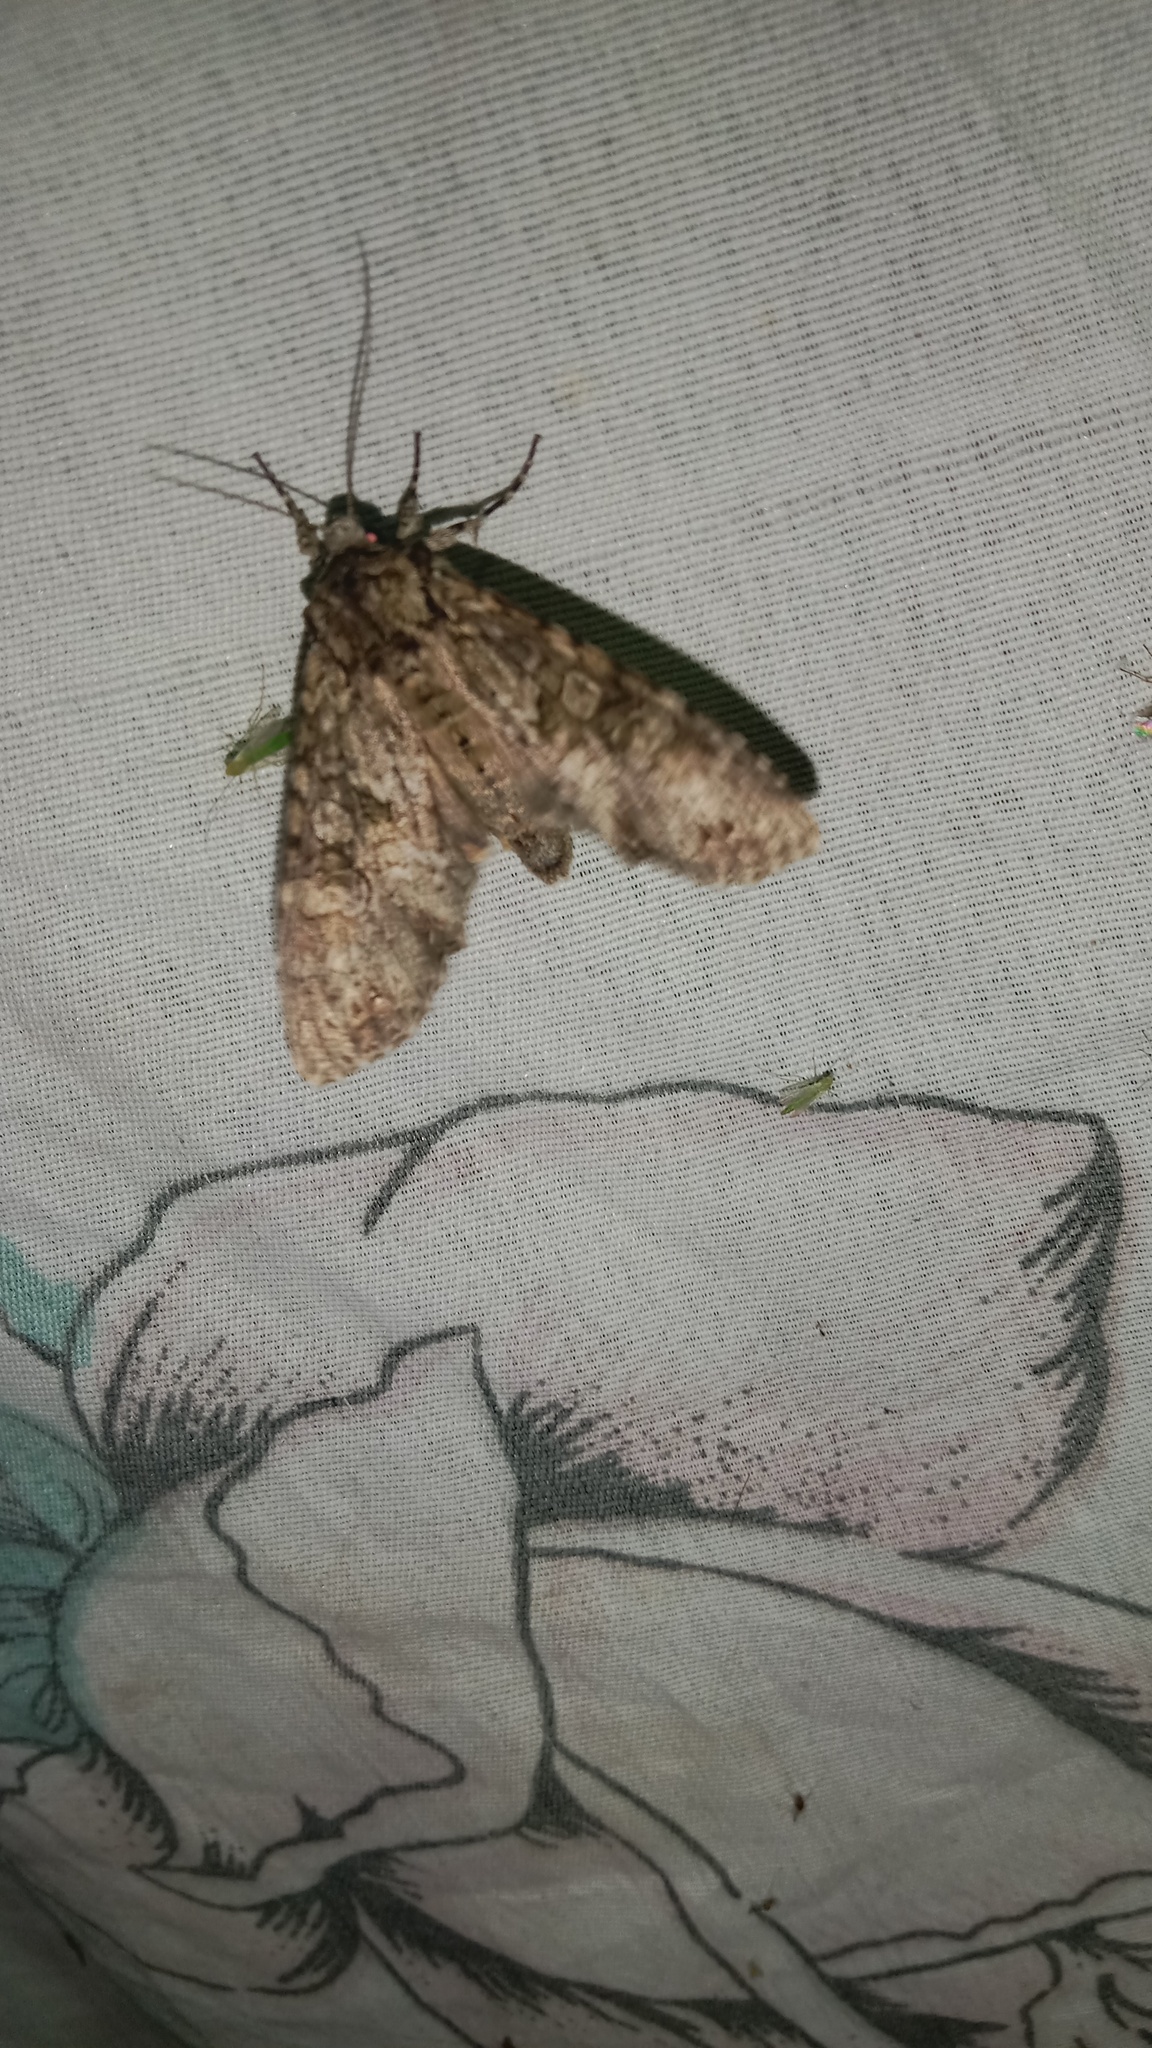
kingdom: Animalia
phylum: Arthropoda
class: Insecta
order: Lepidoptera
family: Noctuidae
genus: Polia
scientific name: Polia nebulosa
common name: Grey arches
